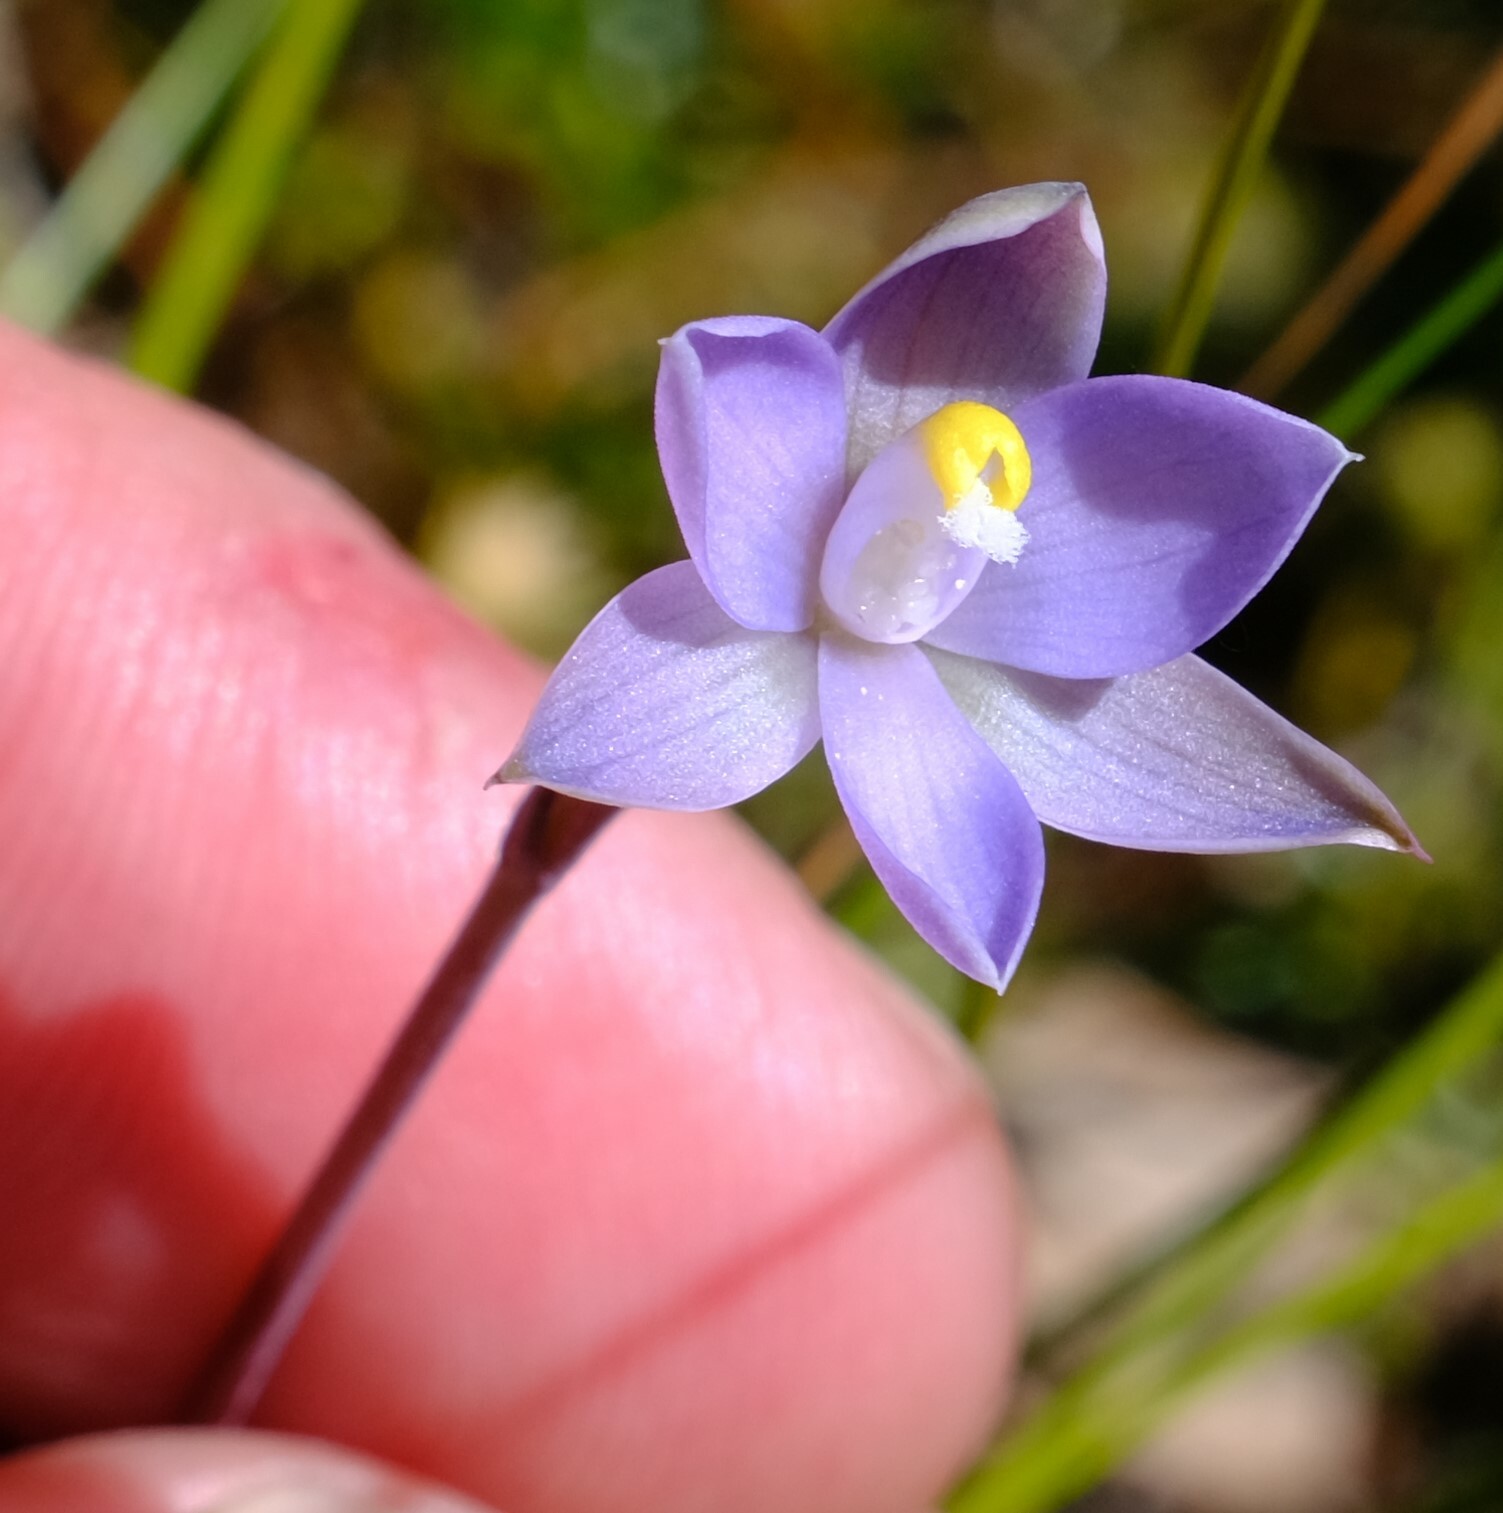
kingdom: Plantae
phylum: Tracheophyta
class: Liliopsida
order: Asparagales
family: Orchidaceae
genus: Thelymitra
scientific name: Thelymitra pauciflora
